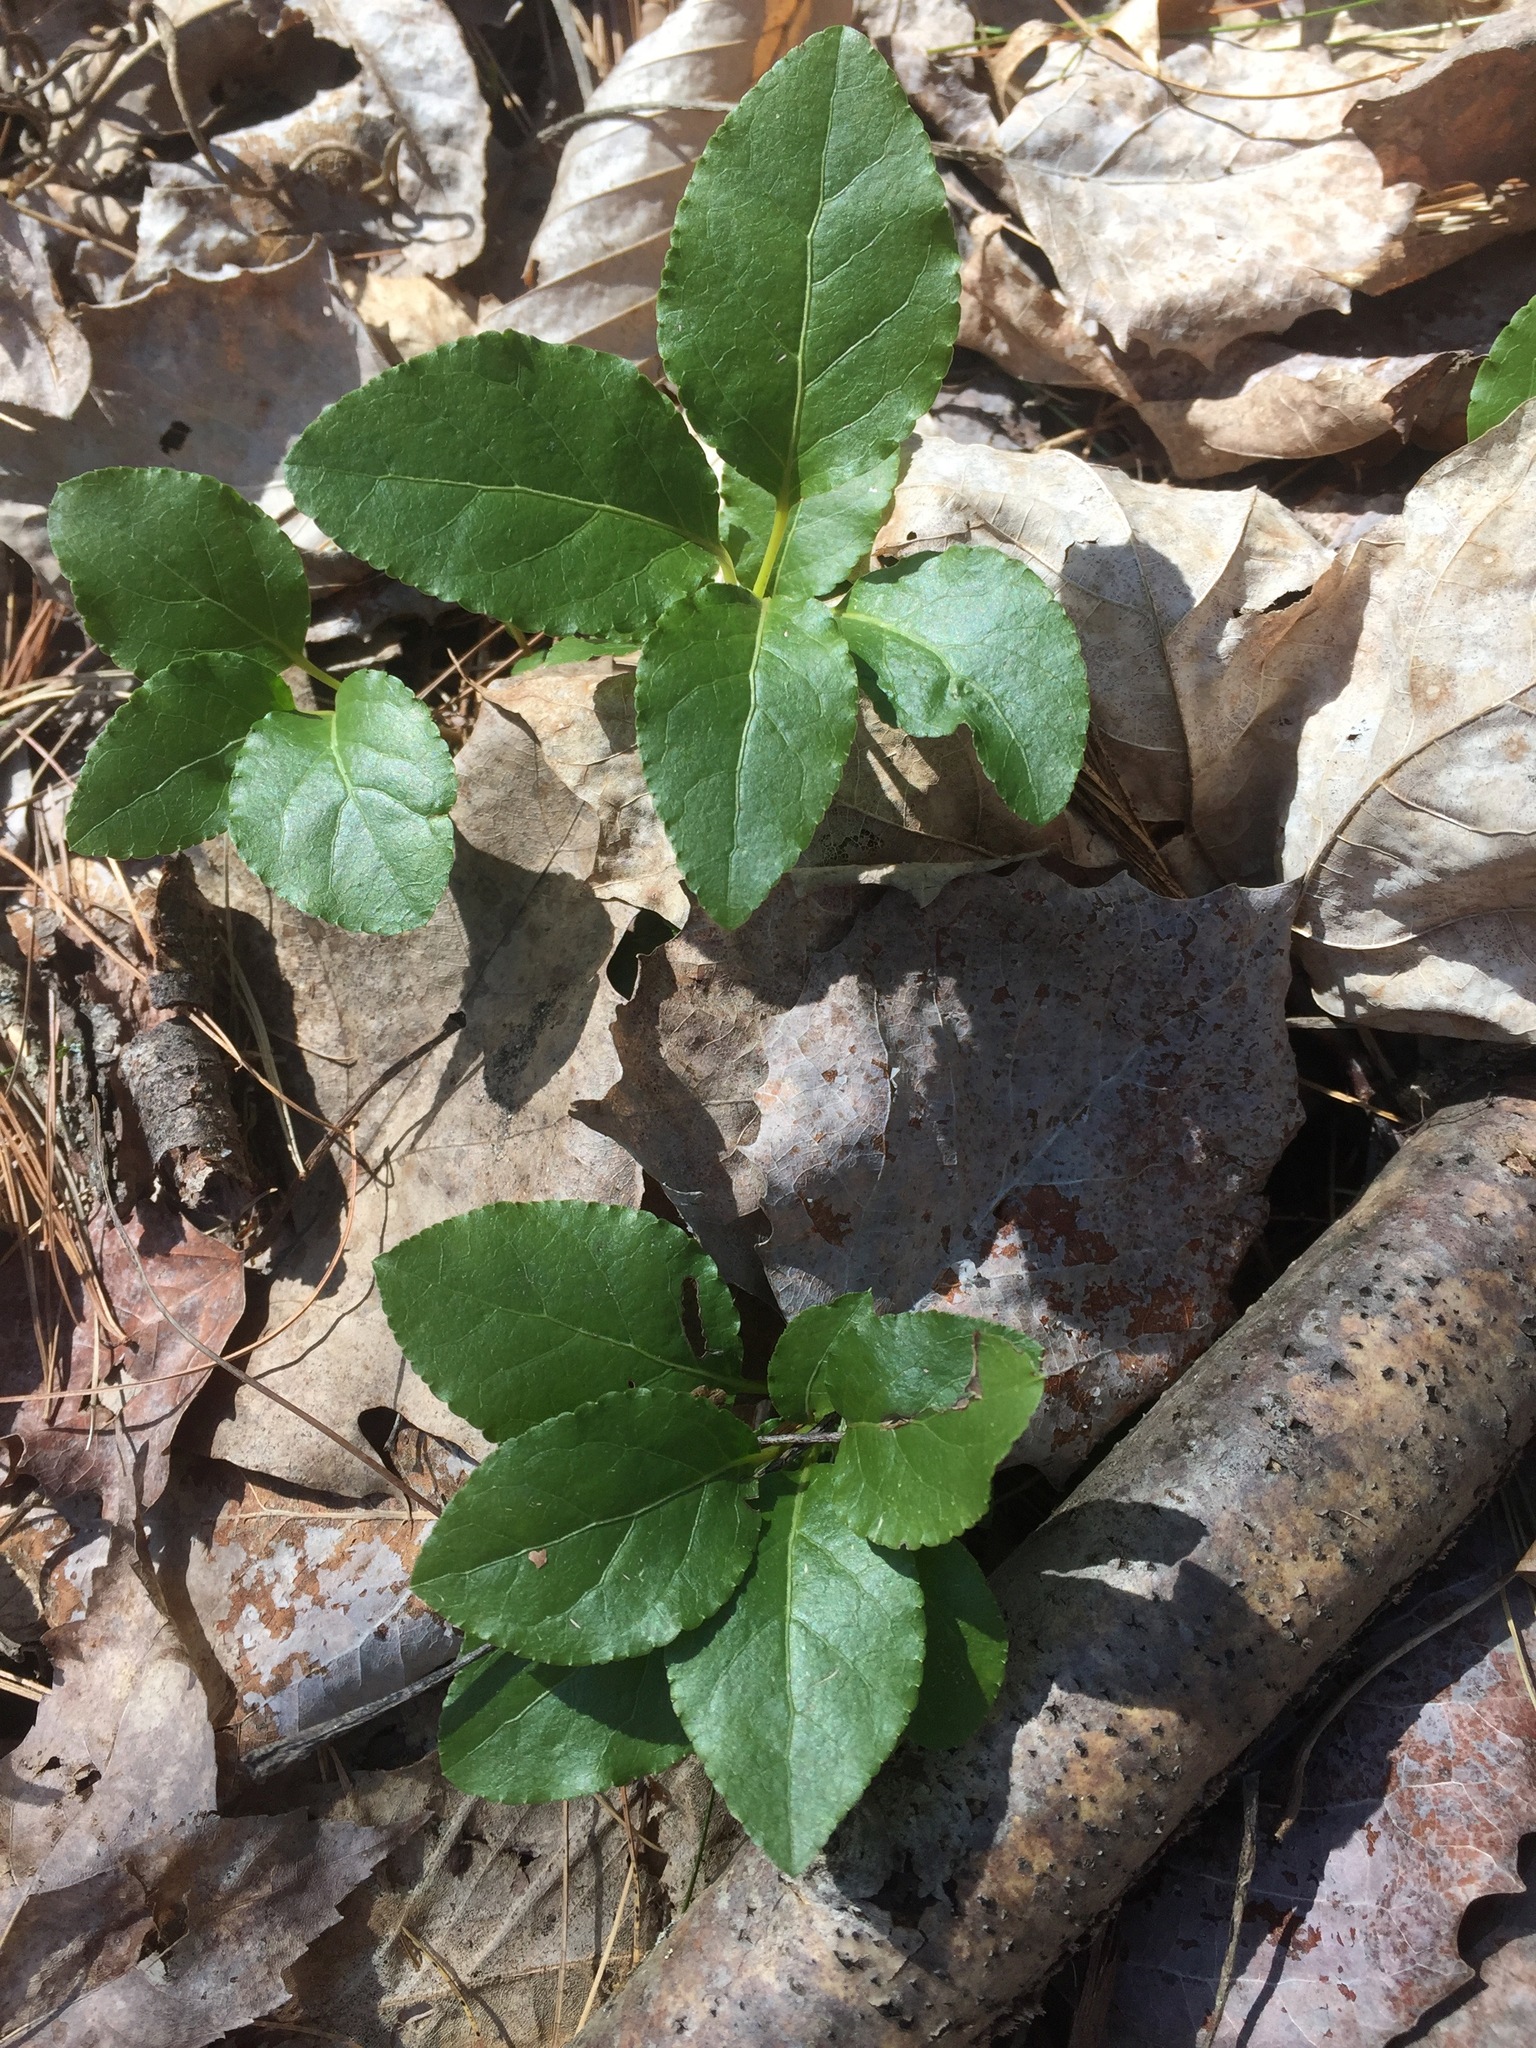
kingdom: Plantae
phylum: Tracheophyta
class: Magnoliopsida
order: Ericales
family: Ericaceae
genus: Orthilia
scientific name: Orthilia secunda
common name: One-sided orthilia
